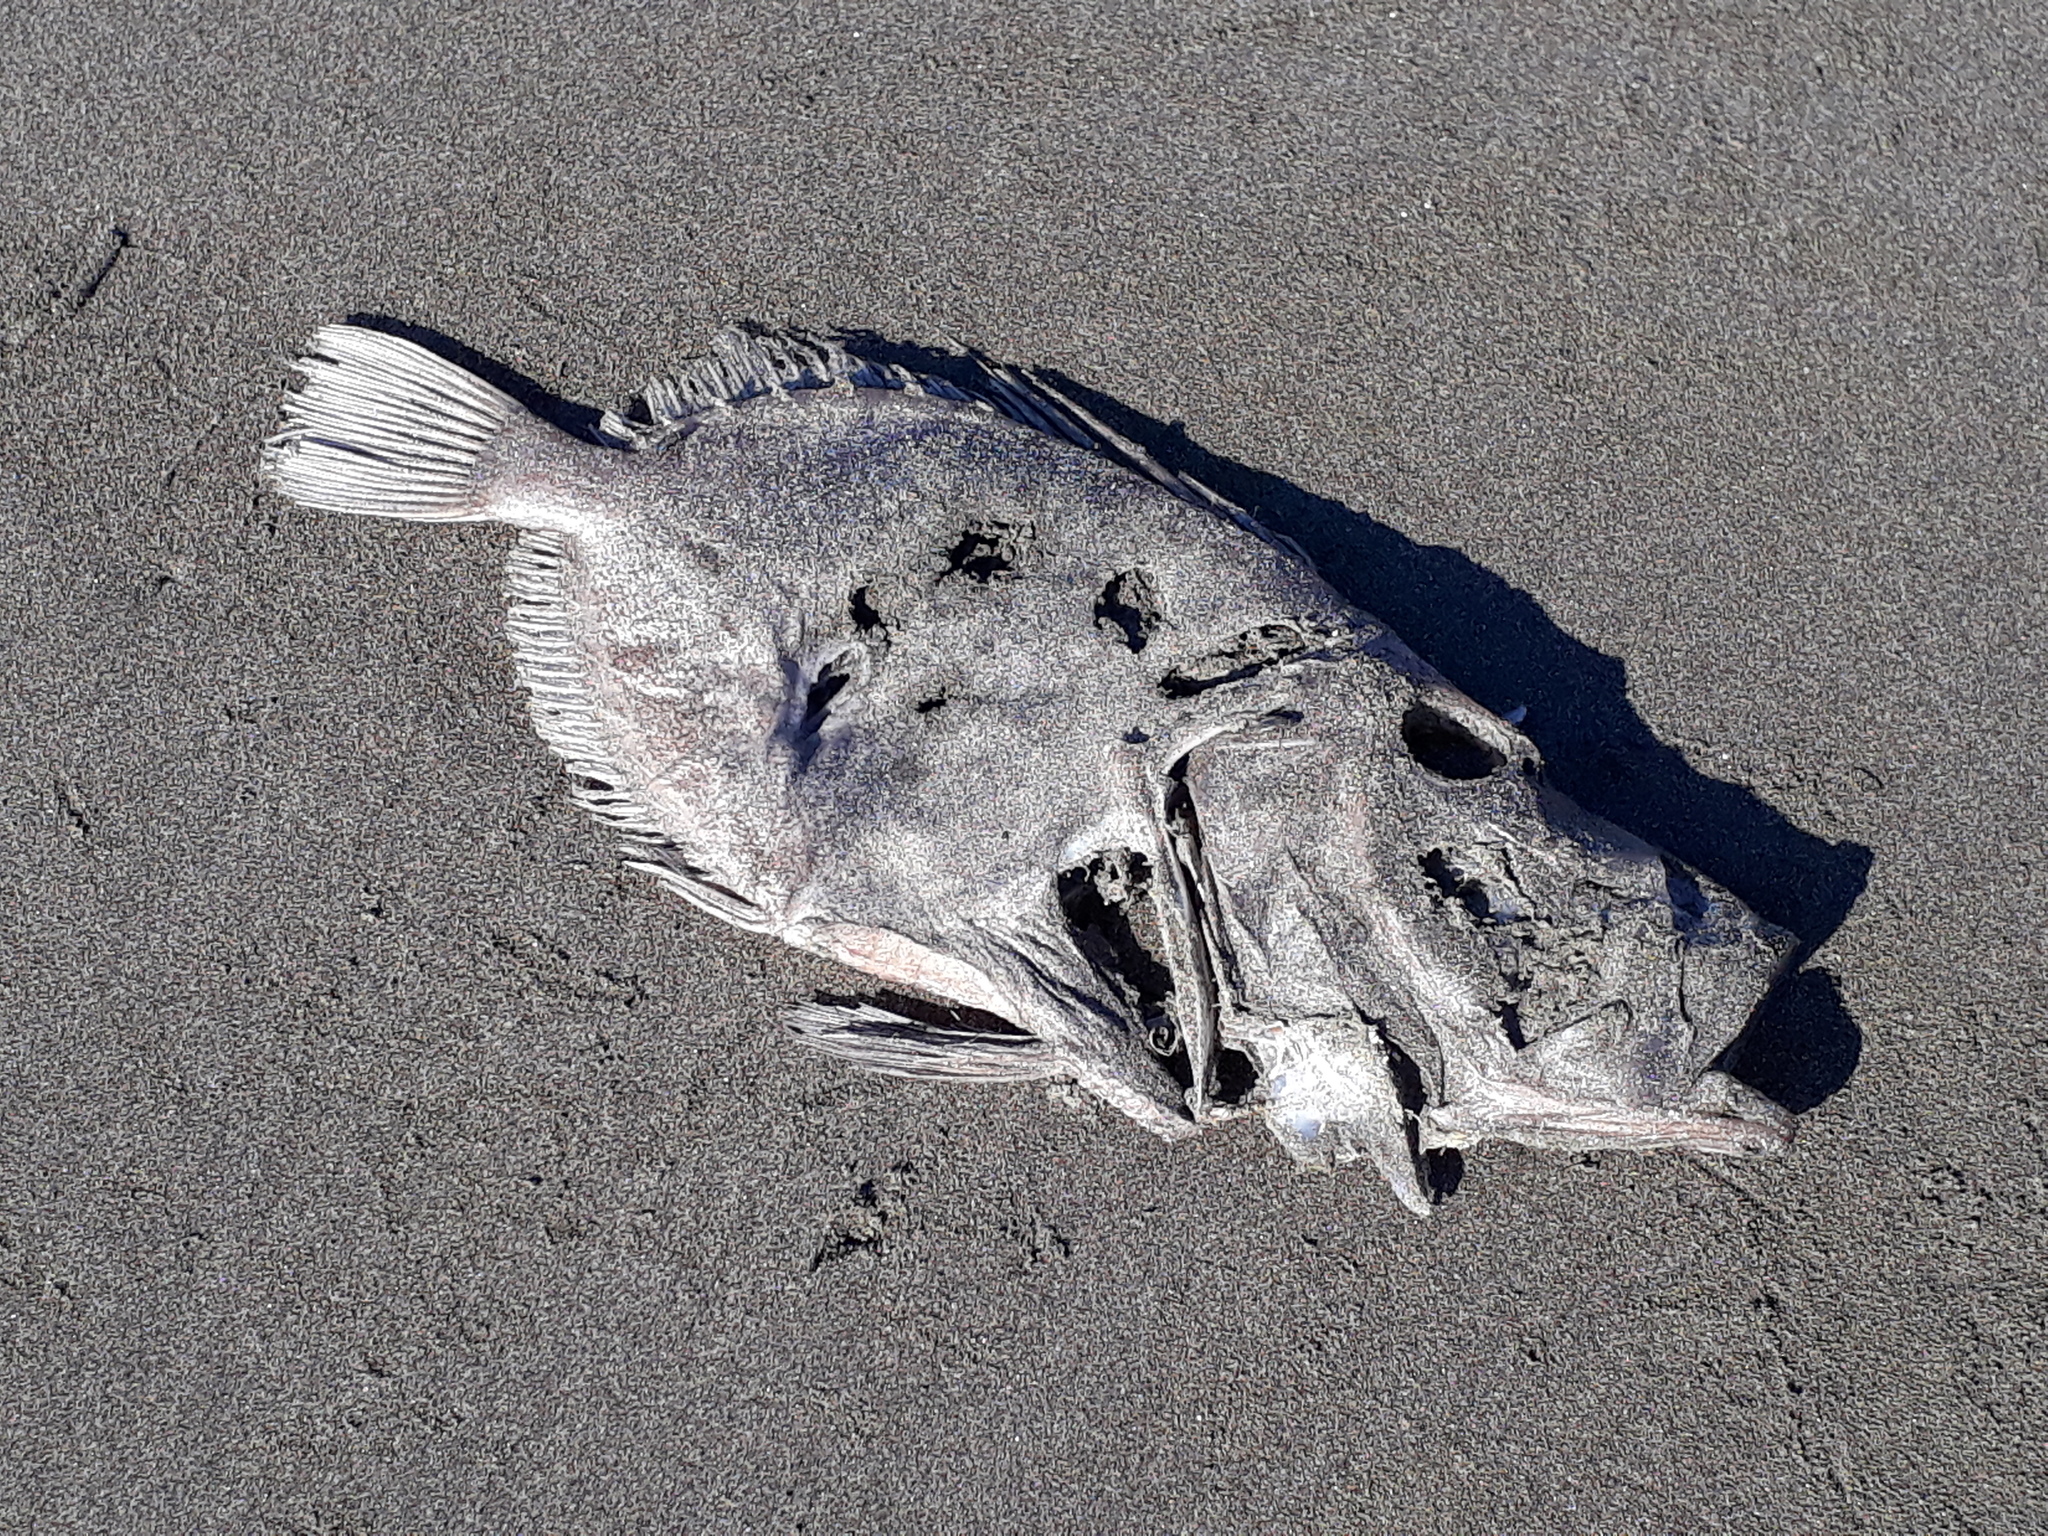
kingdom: Animalia
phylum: Chordata
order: Zeiformes
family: Zeidae
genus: Zeus
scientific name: Zeus faber
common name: John dory
